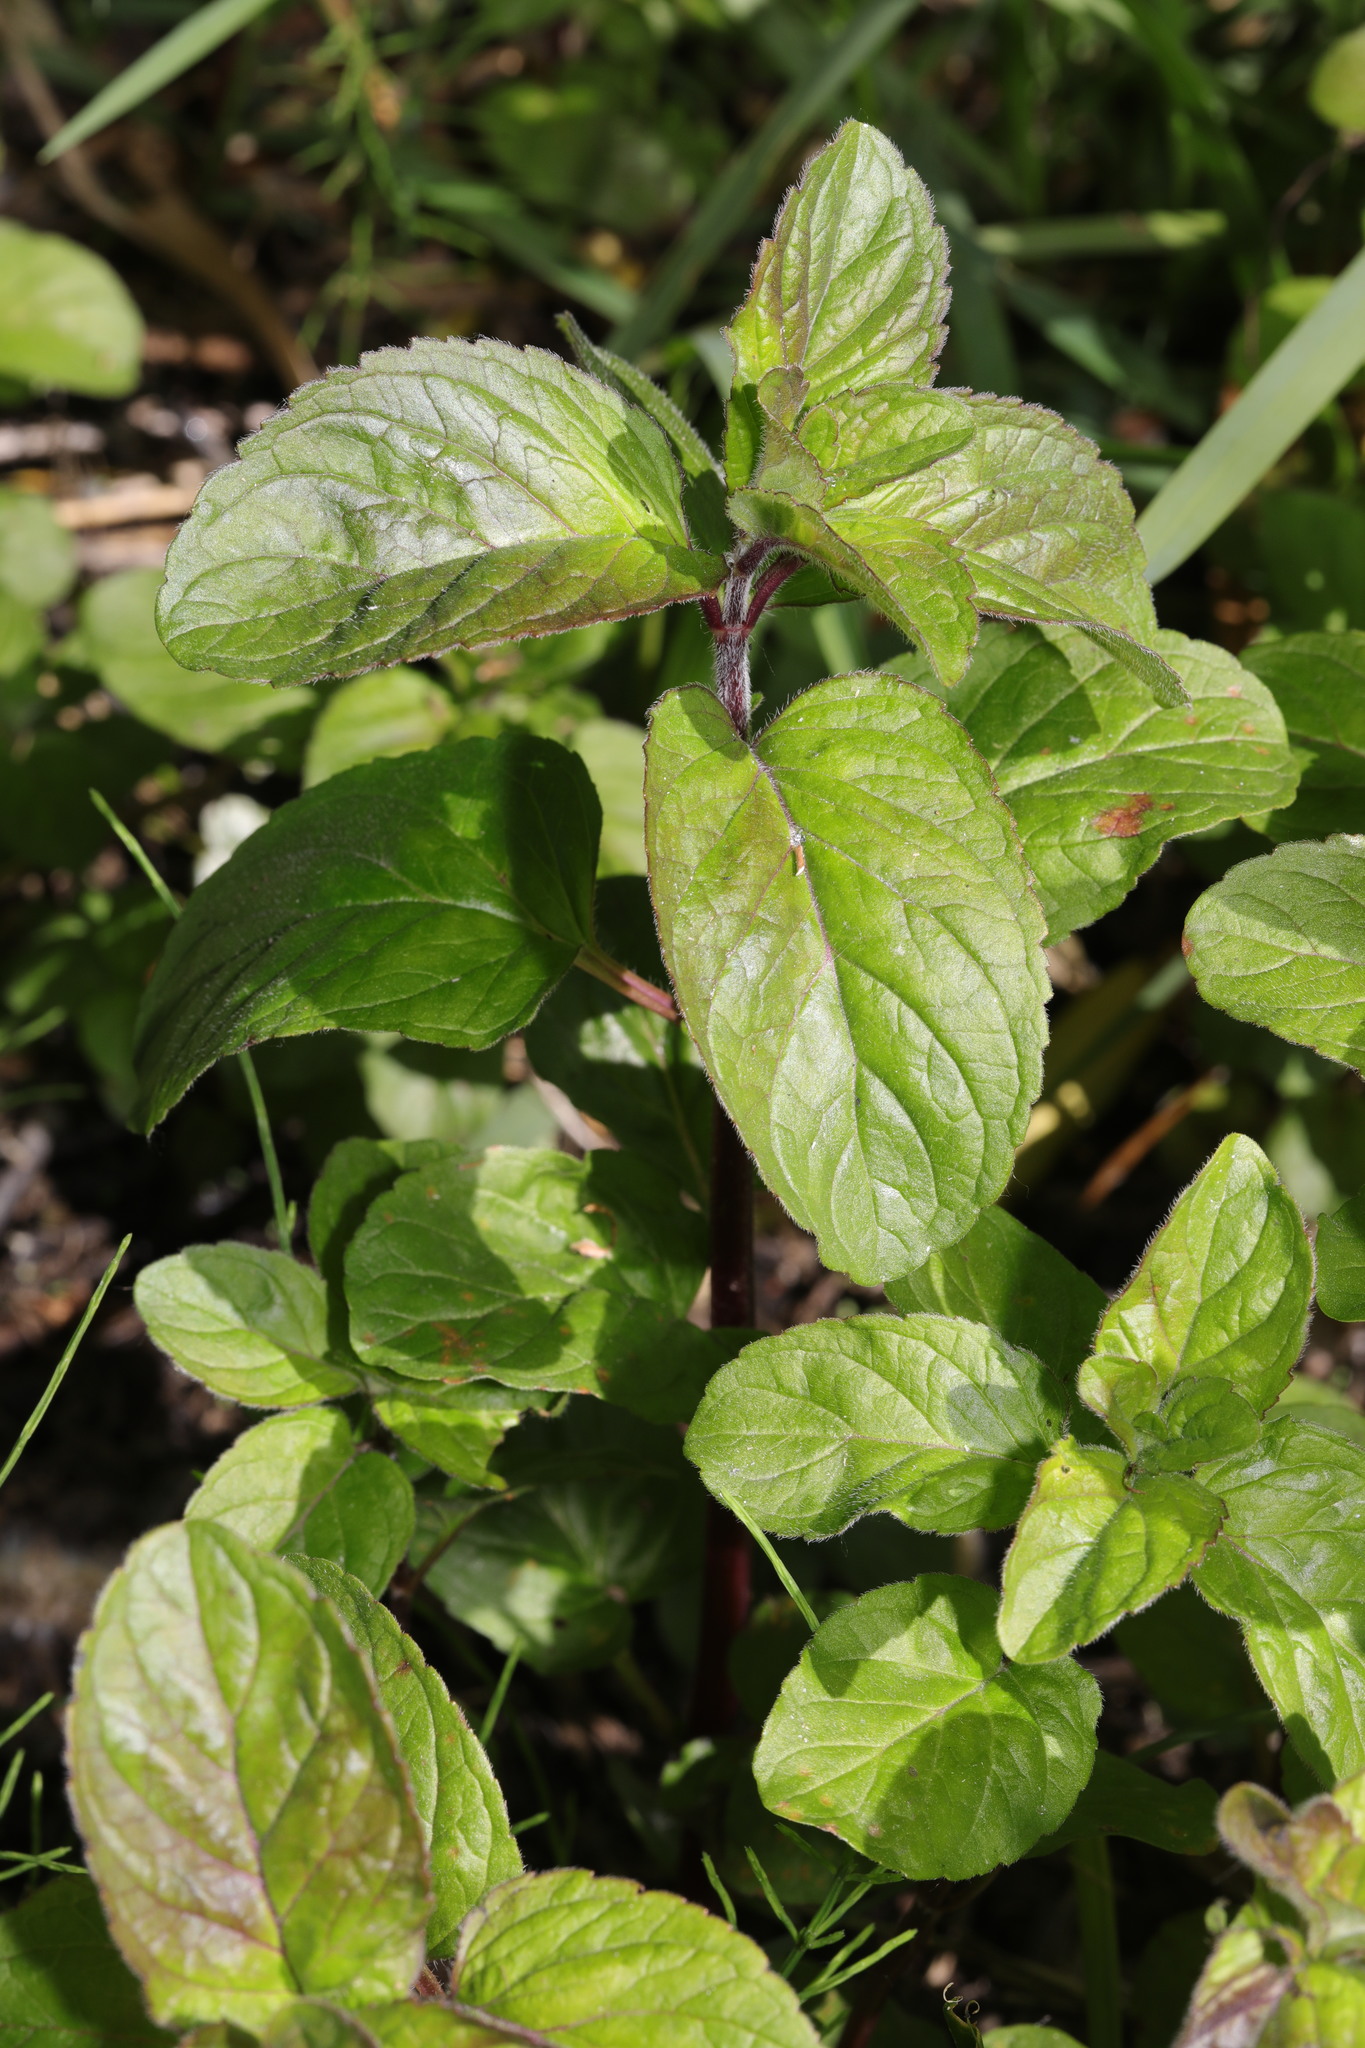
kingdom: Plantae
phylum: Tracheophyta
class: Magnoliopsida
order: Lamiales
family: Lamiaceae
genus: Mentha
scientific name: Mentha aquatica
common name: Water mint
